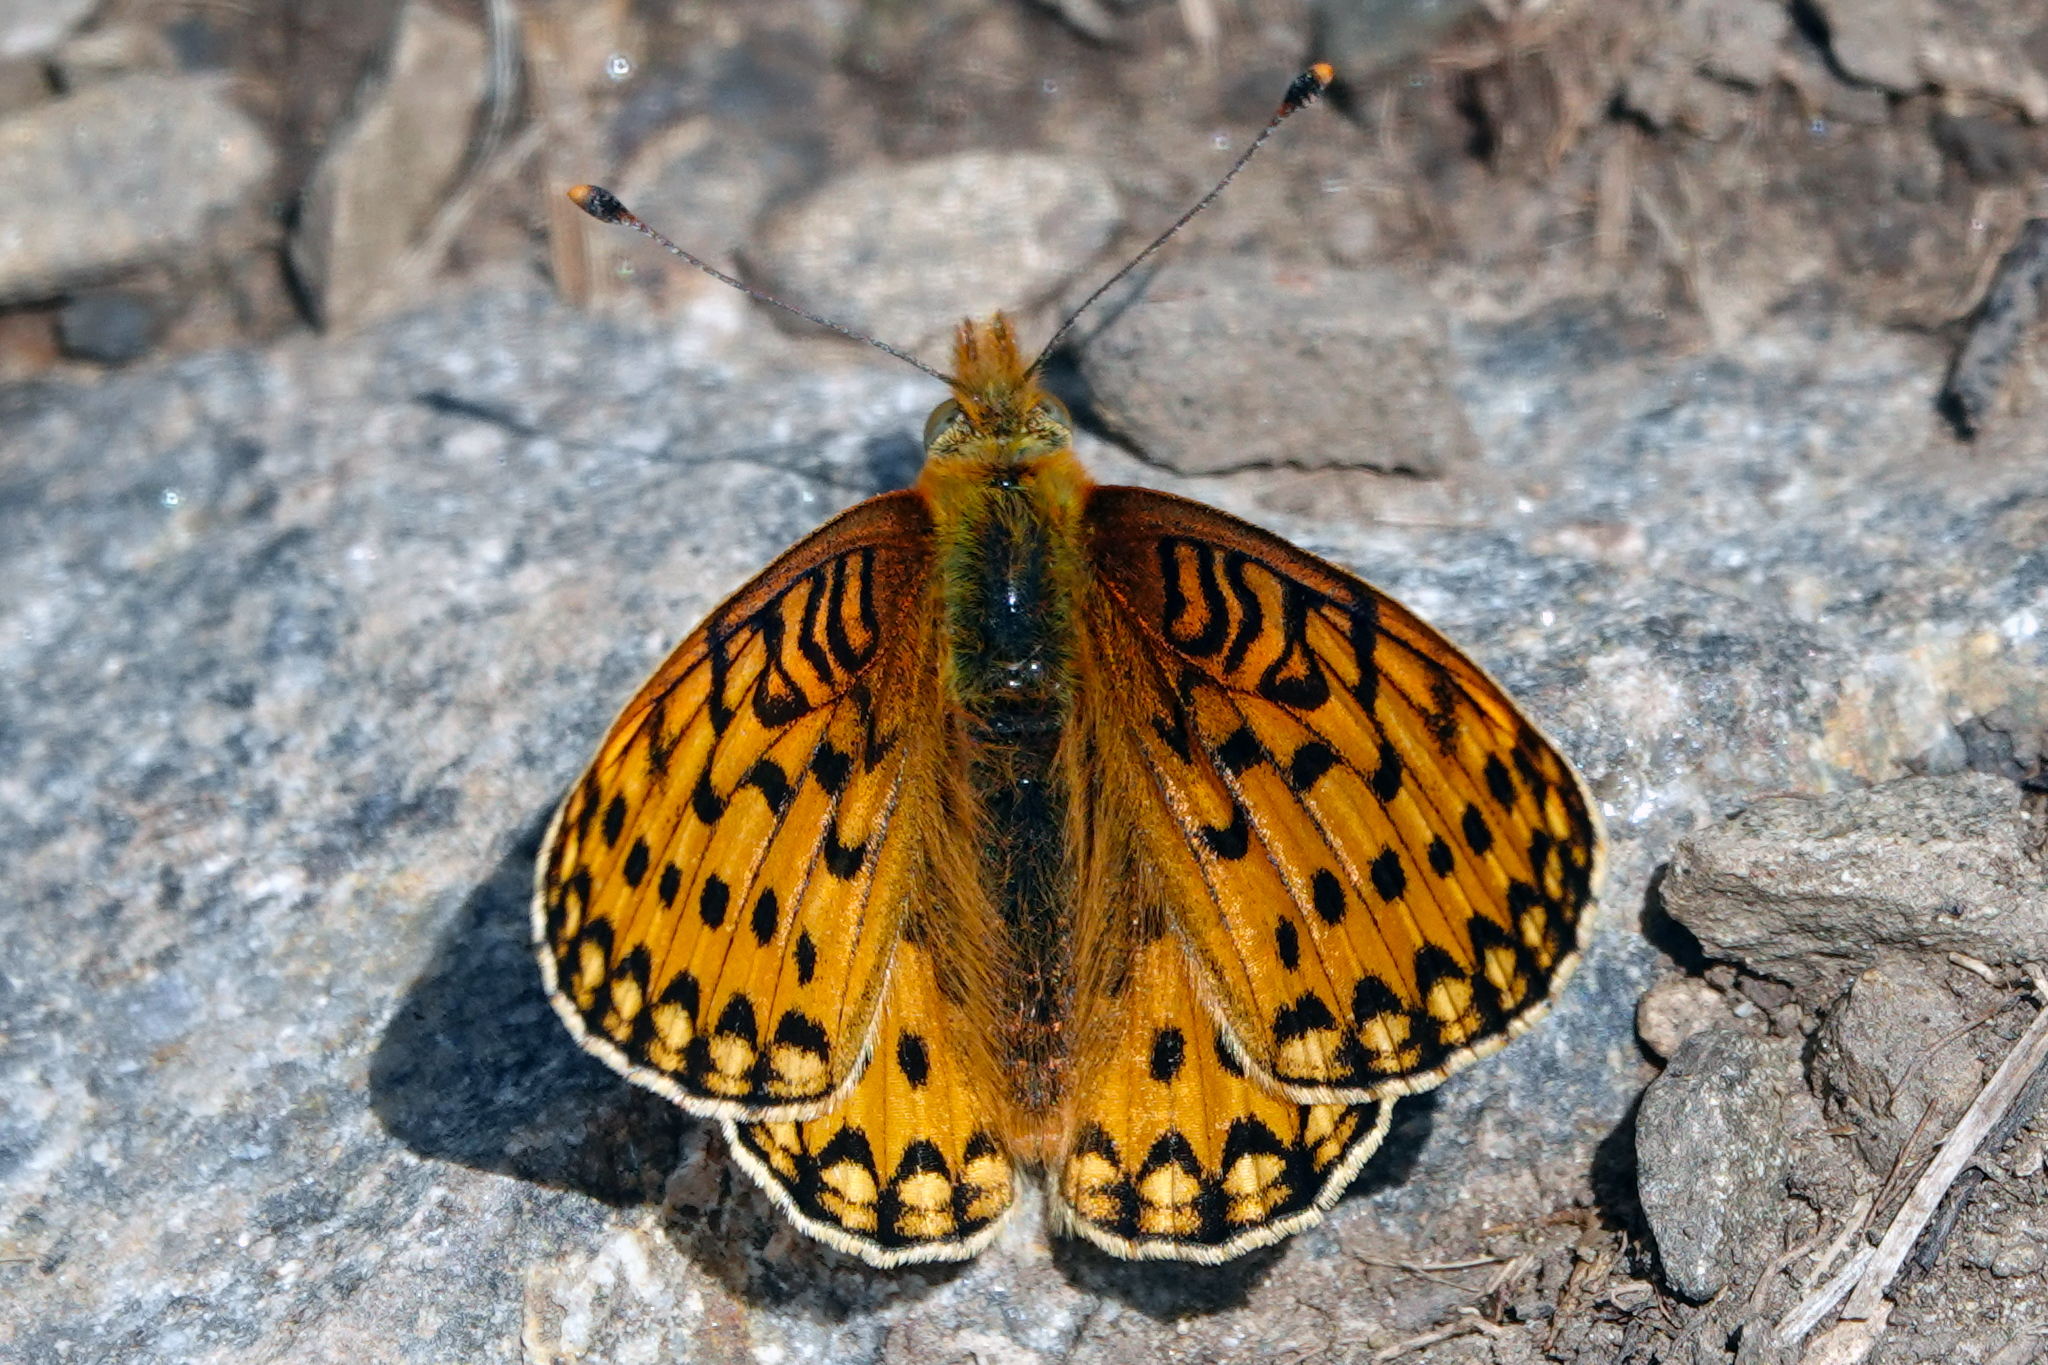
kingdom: Animalia
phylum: Arthropoda
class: Insecta
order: Lepidoptera
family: Nymphalidae
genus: Speyeria
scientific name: Speyeria mormonia
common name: Mormon fritillary
